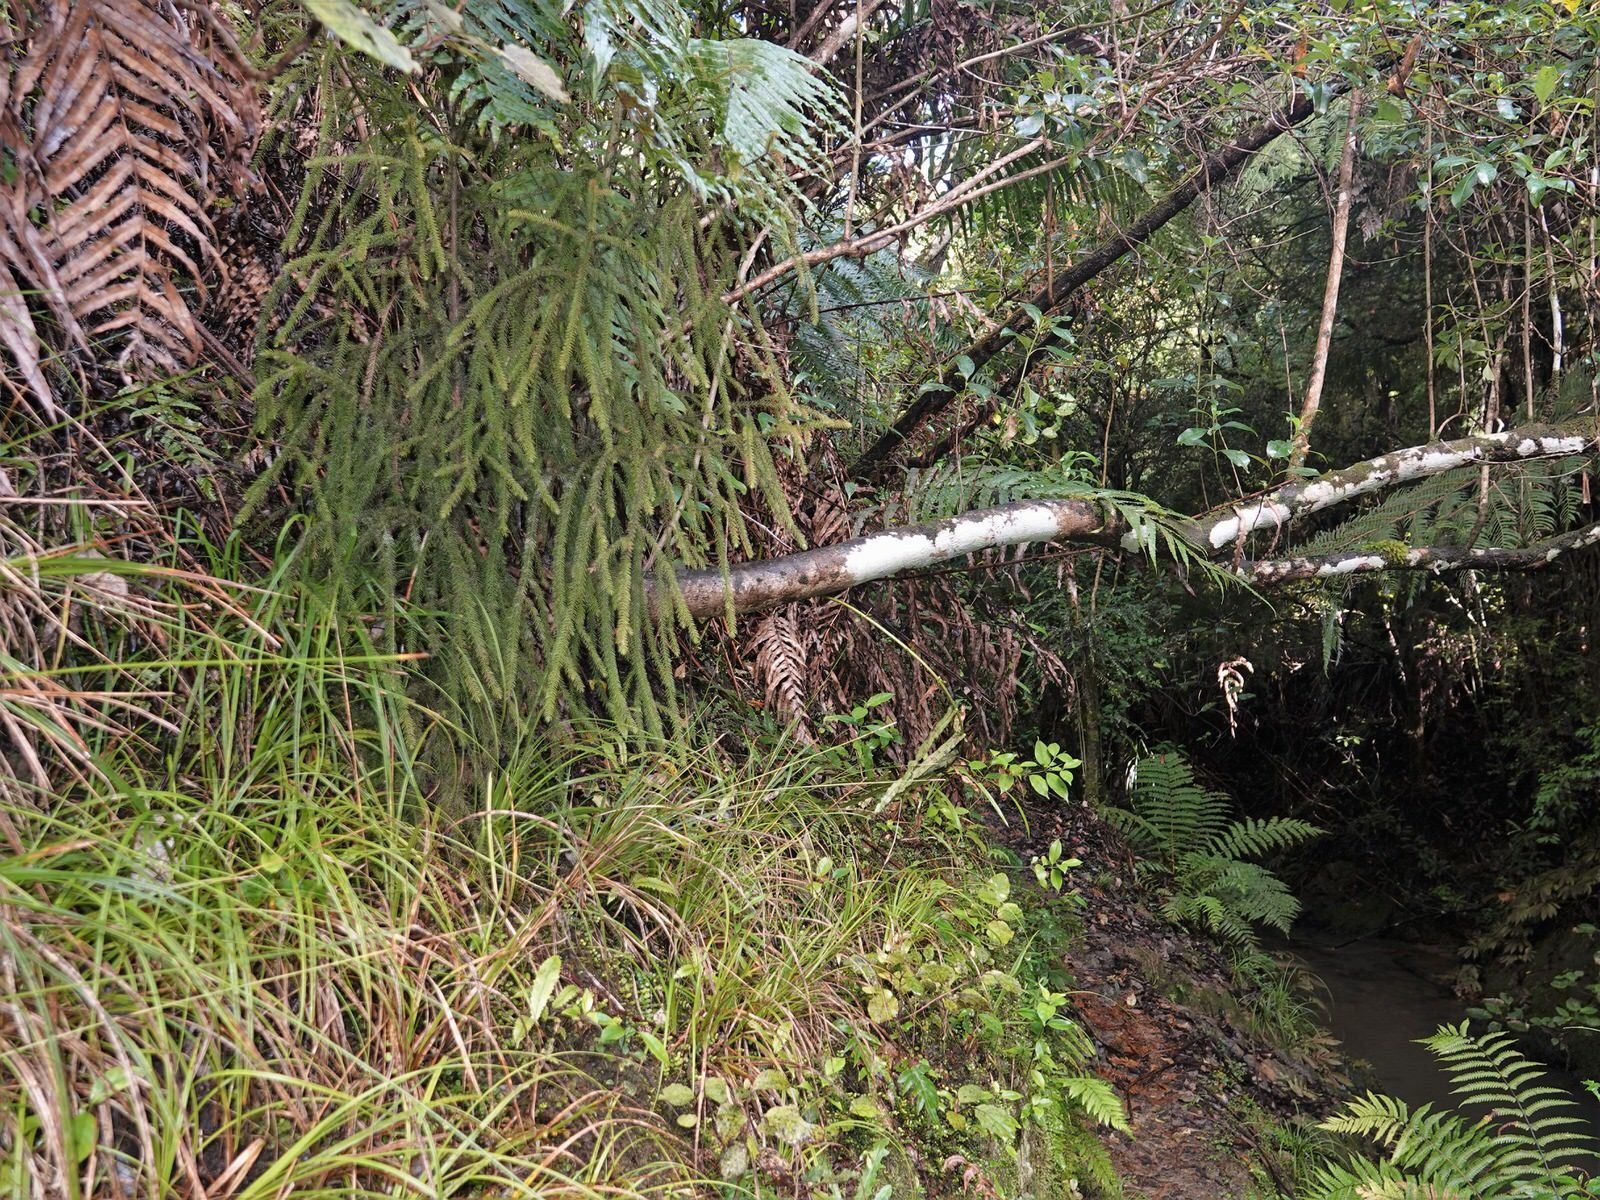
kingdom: Plantae
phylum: Tracheophyta
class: Pinopsida
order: Pinales
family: Podocarpaceae
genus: Dacrydium
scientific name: Dacrydium cupressinum
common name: Red pine
